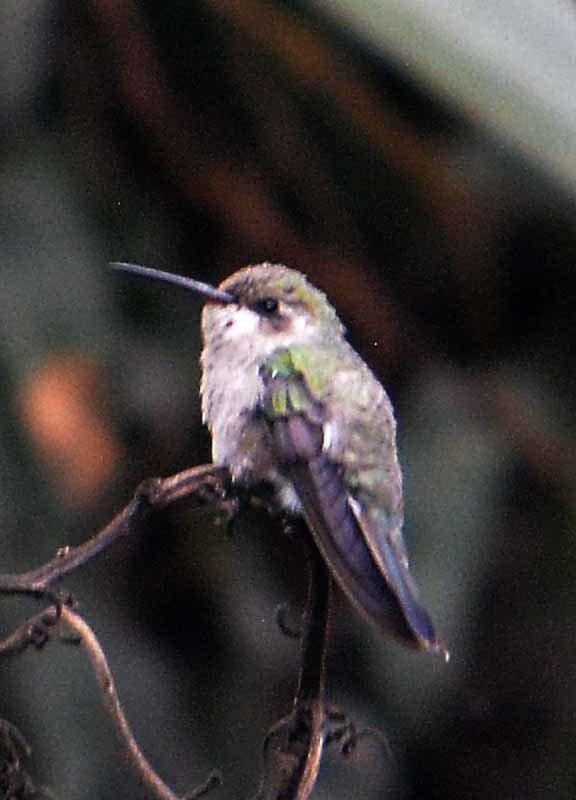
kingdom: Animalia
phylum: Chordata
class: Aves
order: Apodiformes
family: Trochilidae
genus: Cynanthus
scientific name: Cynanthus latirostris
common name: Broad-billed hummingbird
